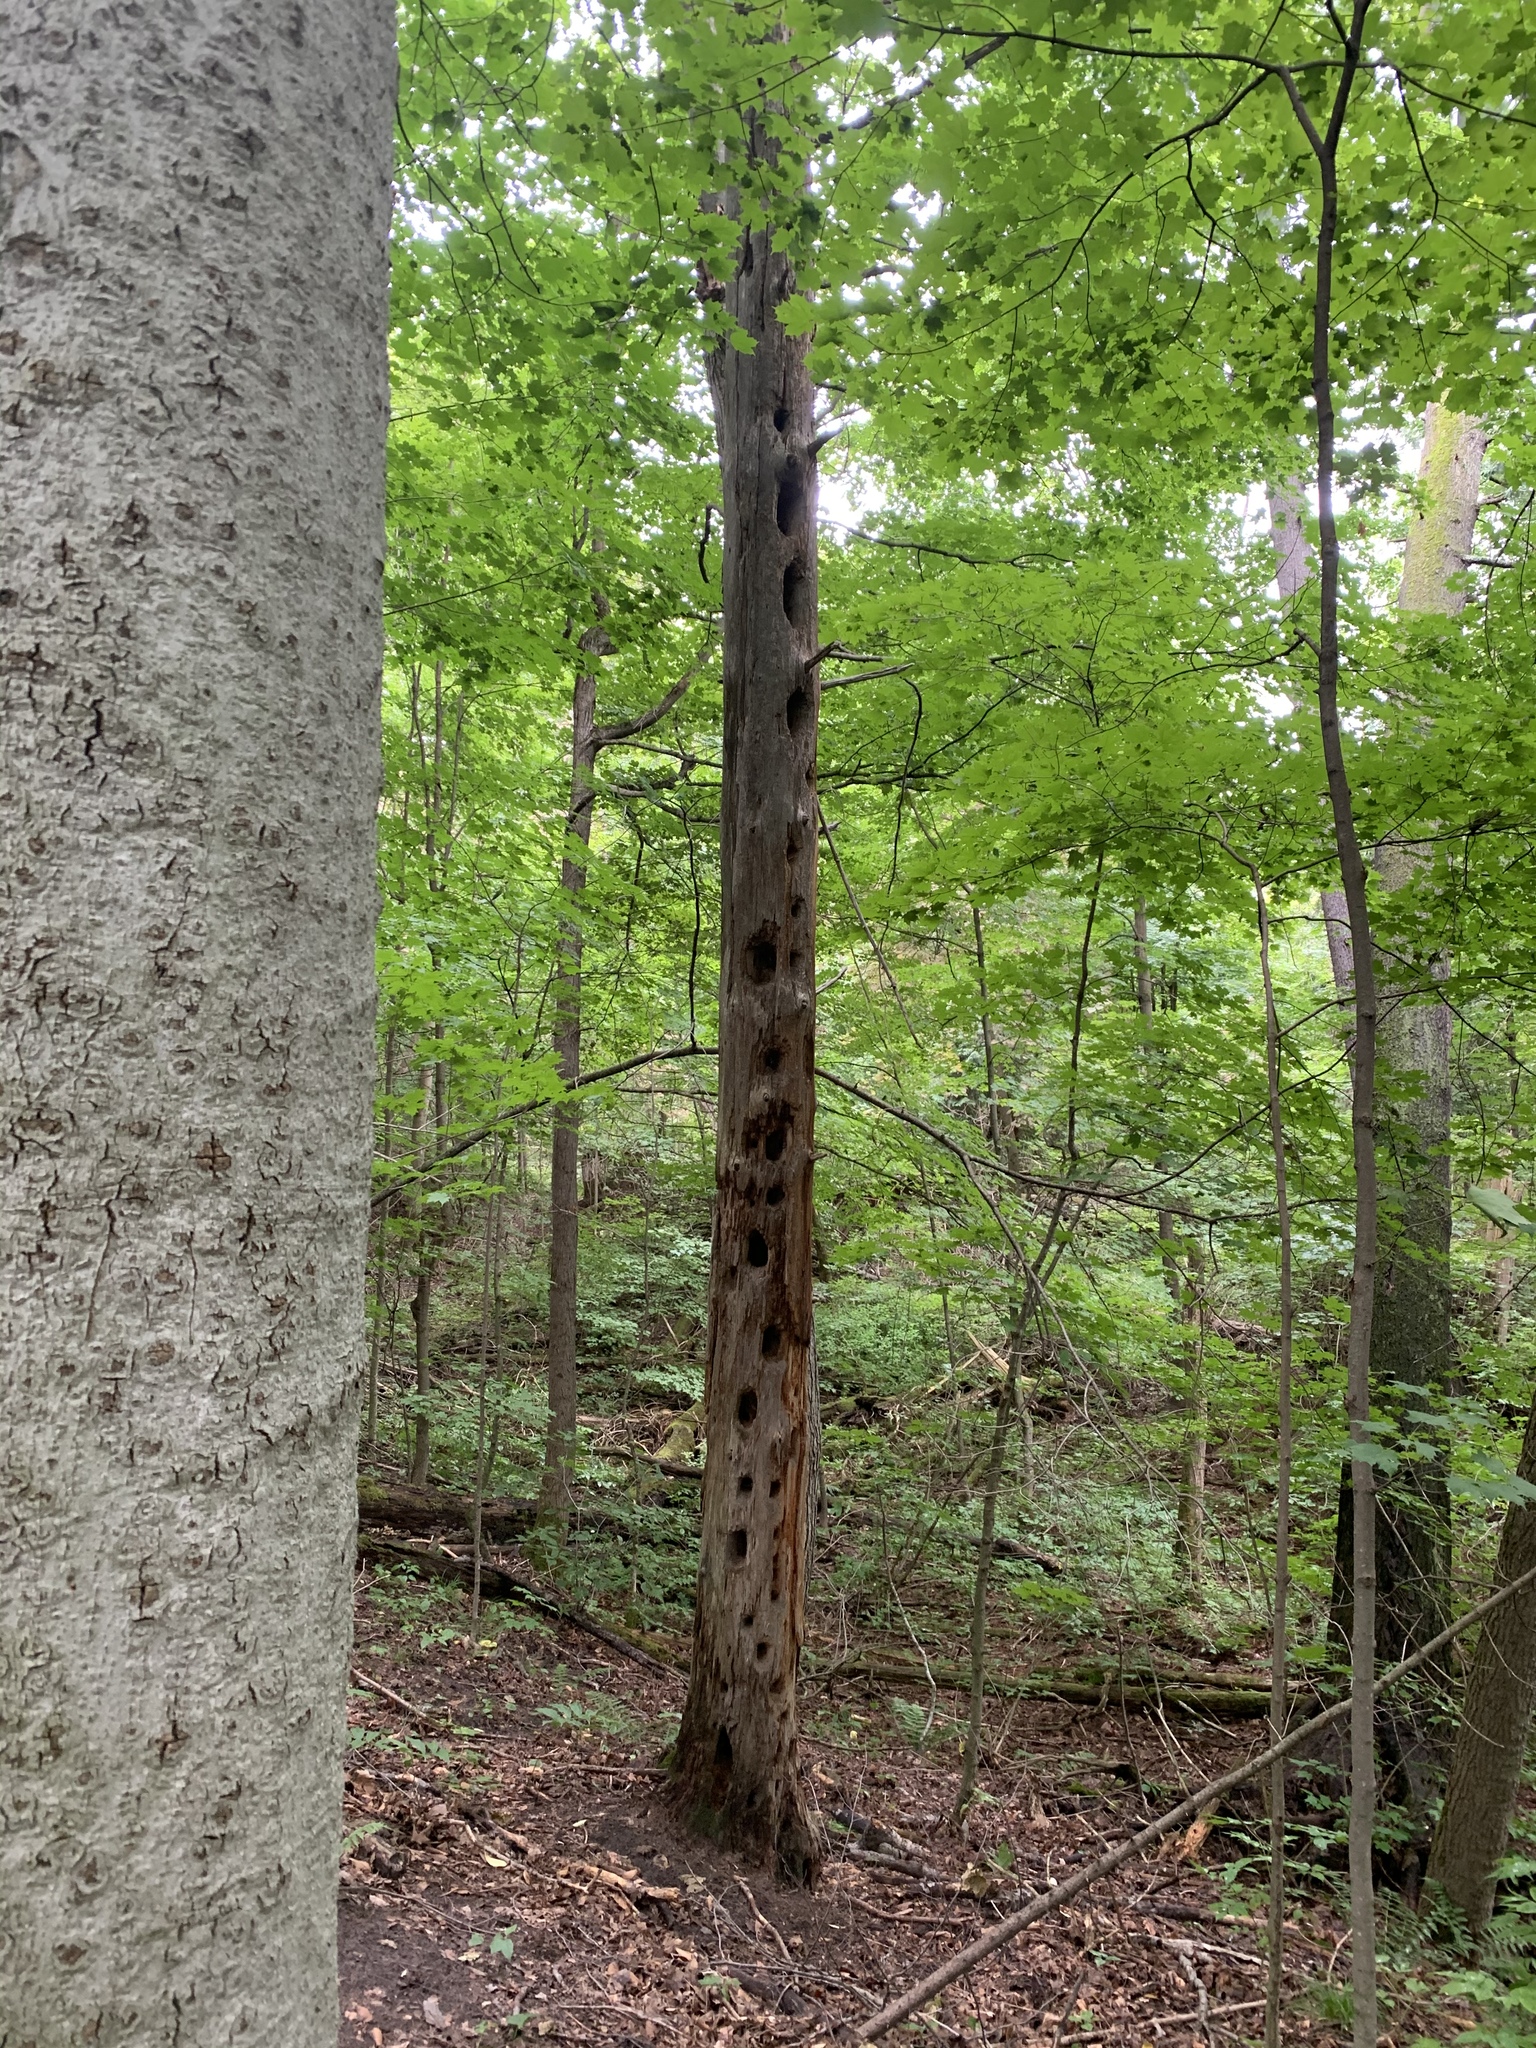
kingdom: Animalia
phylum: Chordata
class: Aves
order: Piciformes
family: Picidae
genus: Dryocopus
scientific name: Dryocopus pileatus
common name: Pileated woodpecker
